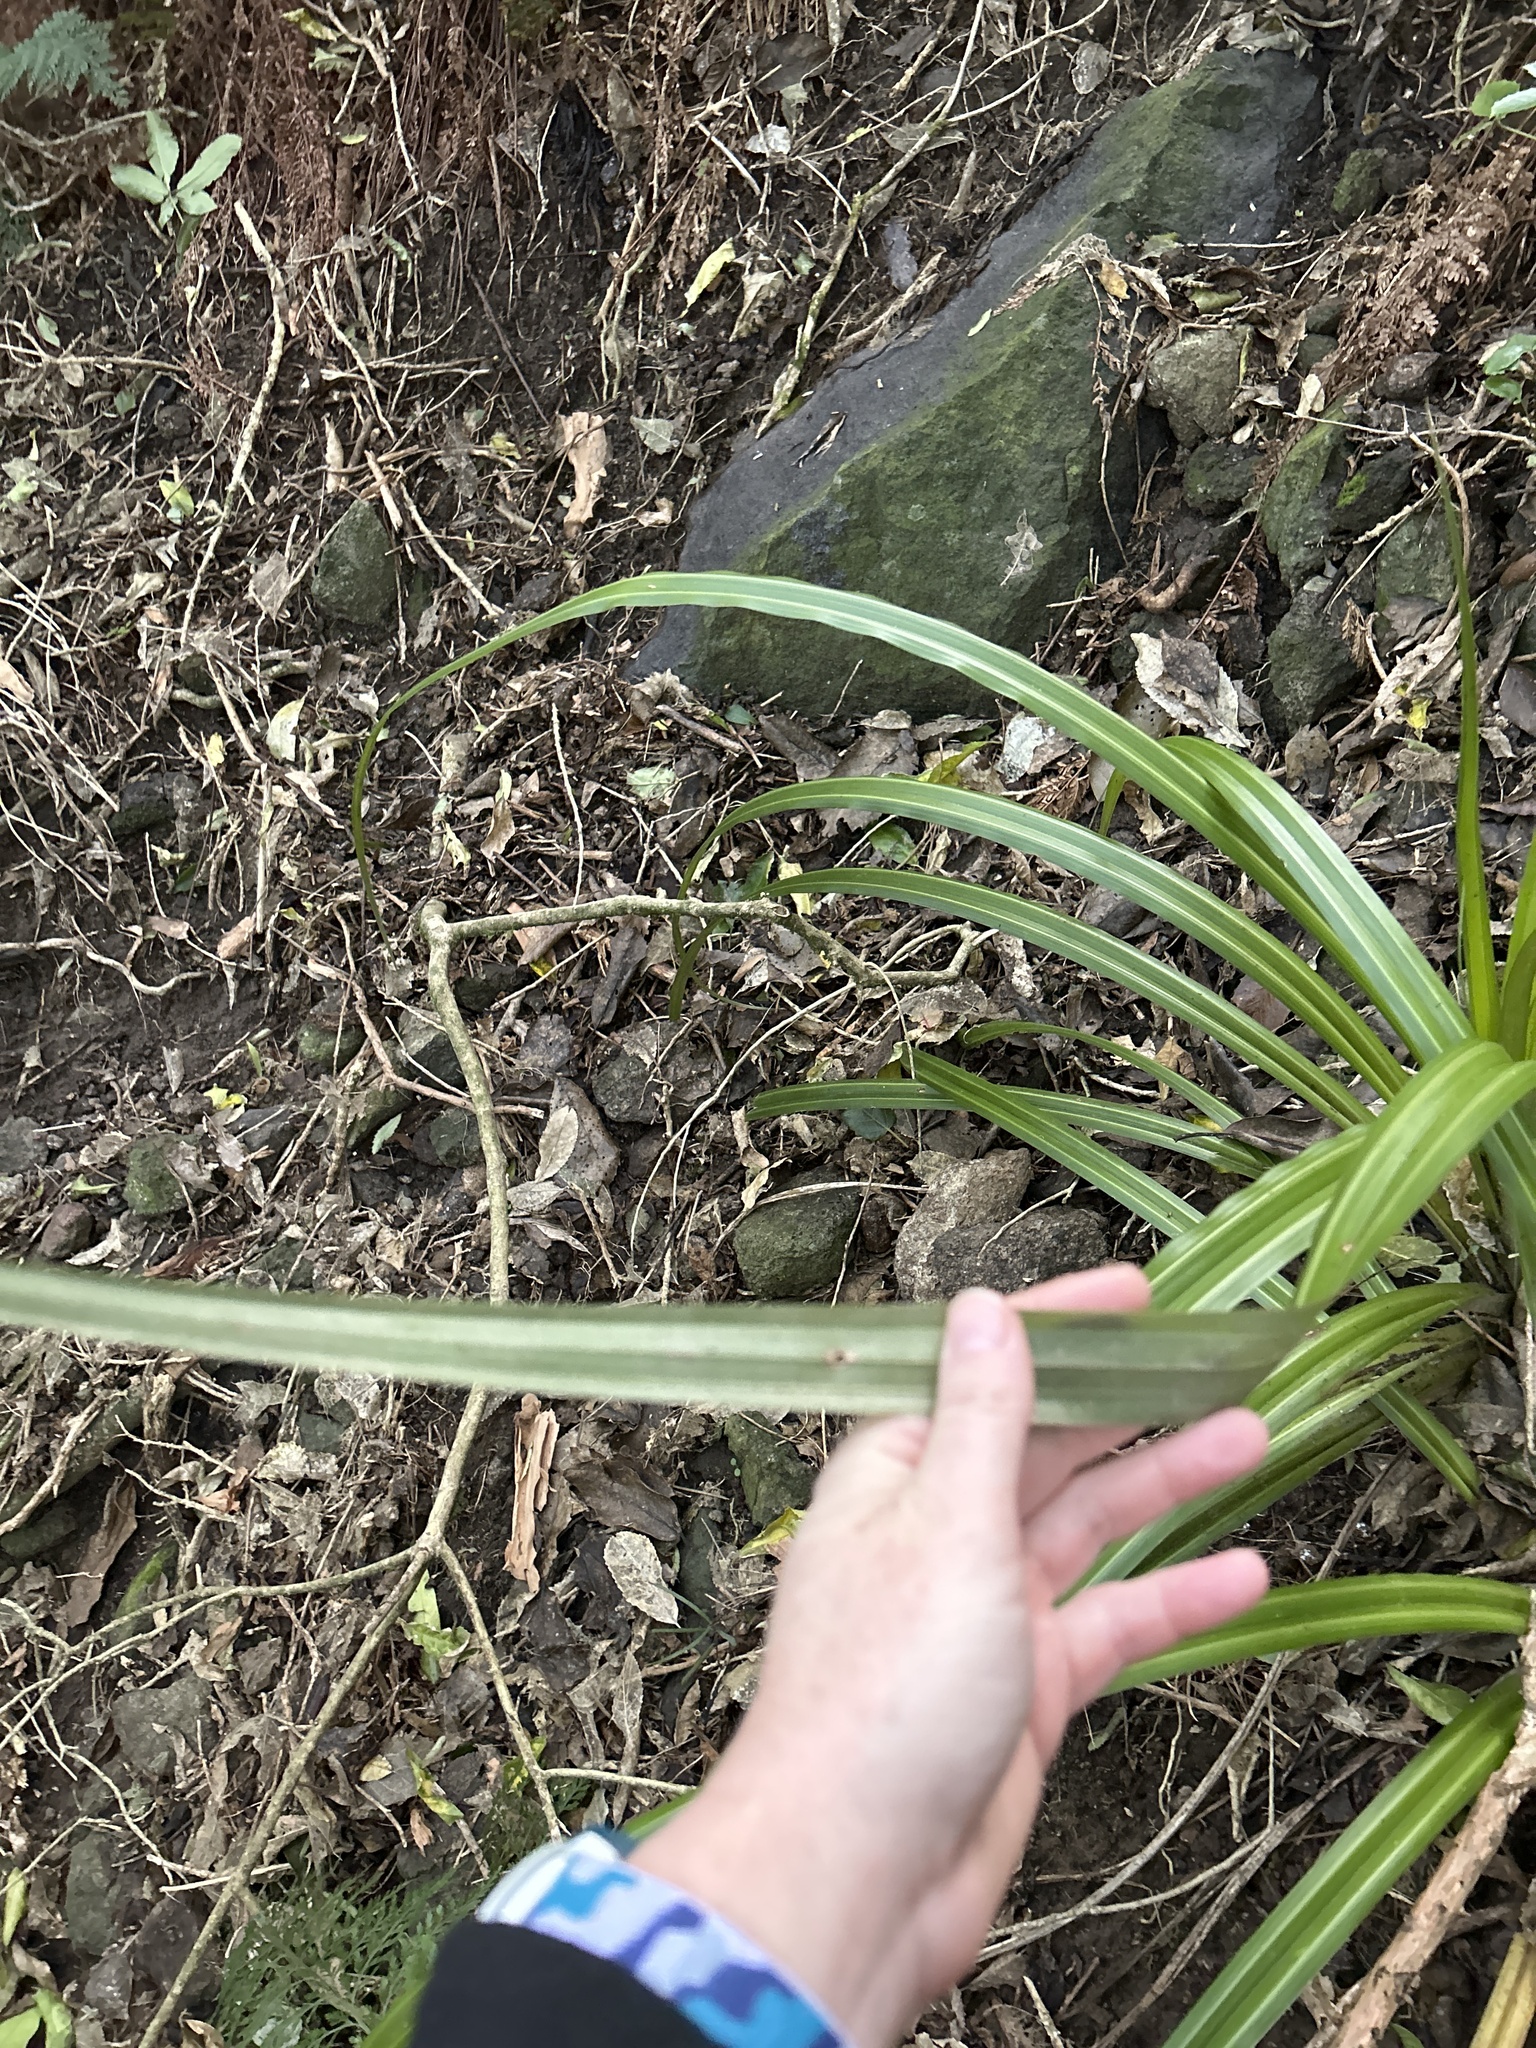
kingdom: Plantae
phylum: Tracheophyta
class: Liliopsida
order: Asparagales
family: Asteliaceae
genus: Astelia
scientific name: Astelia fragrans
